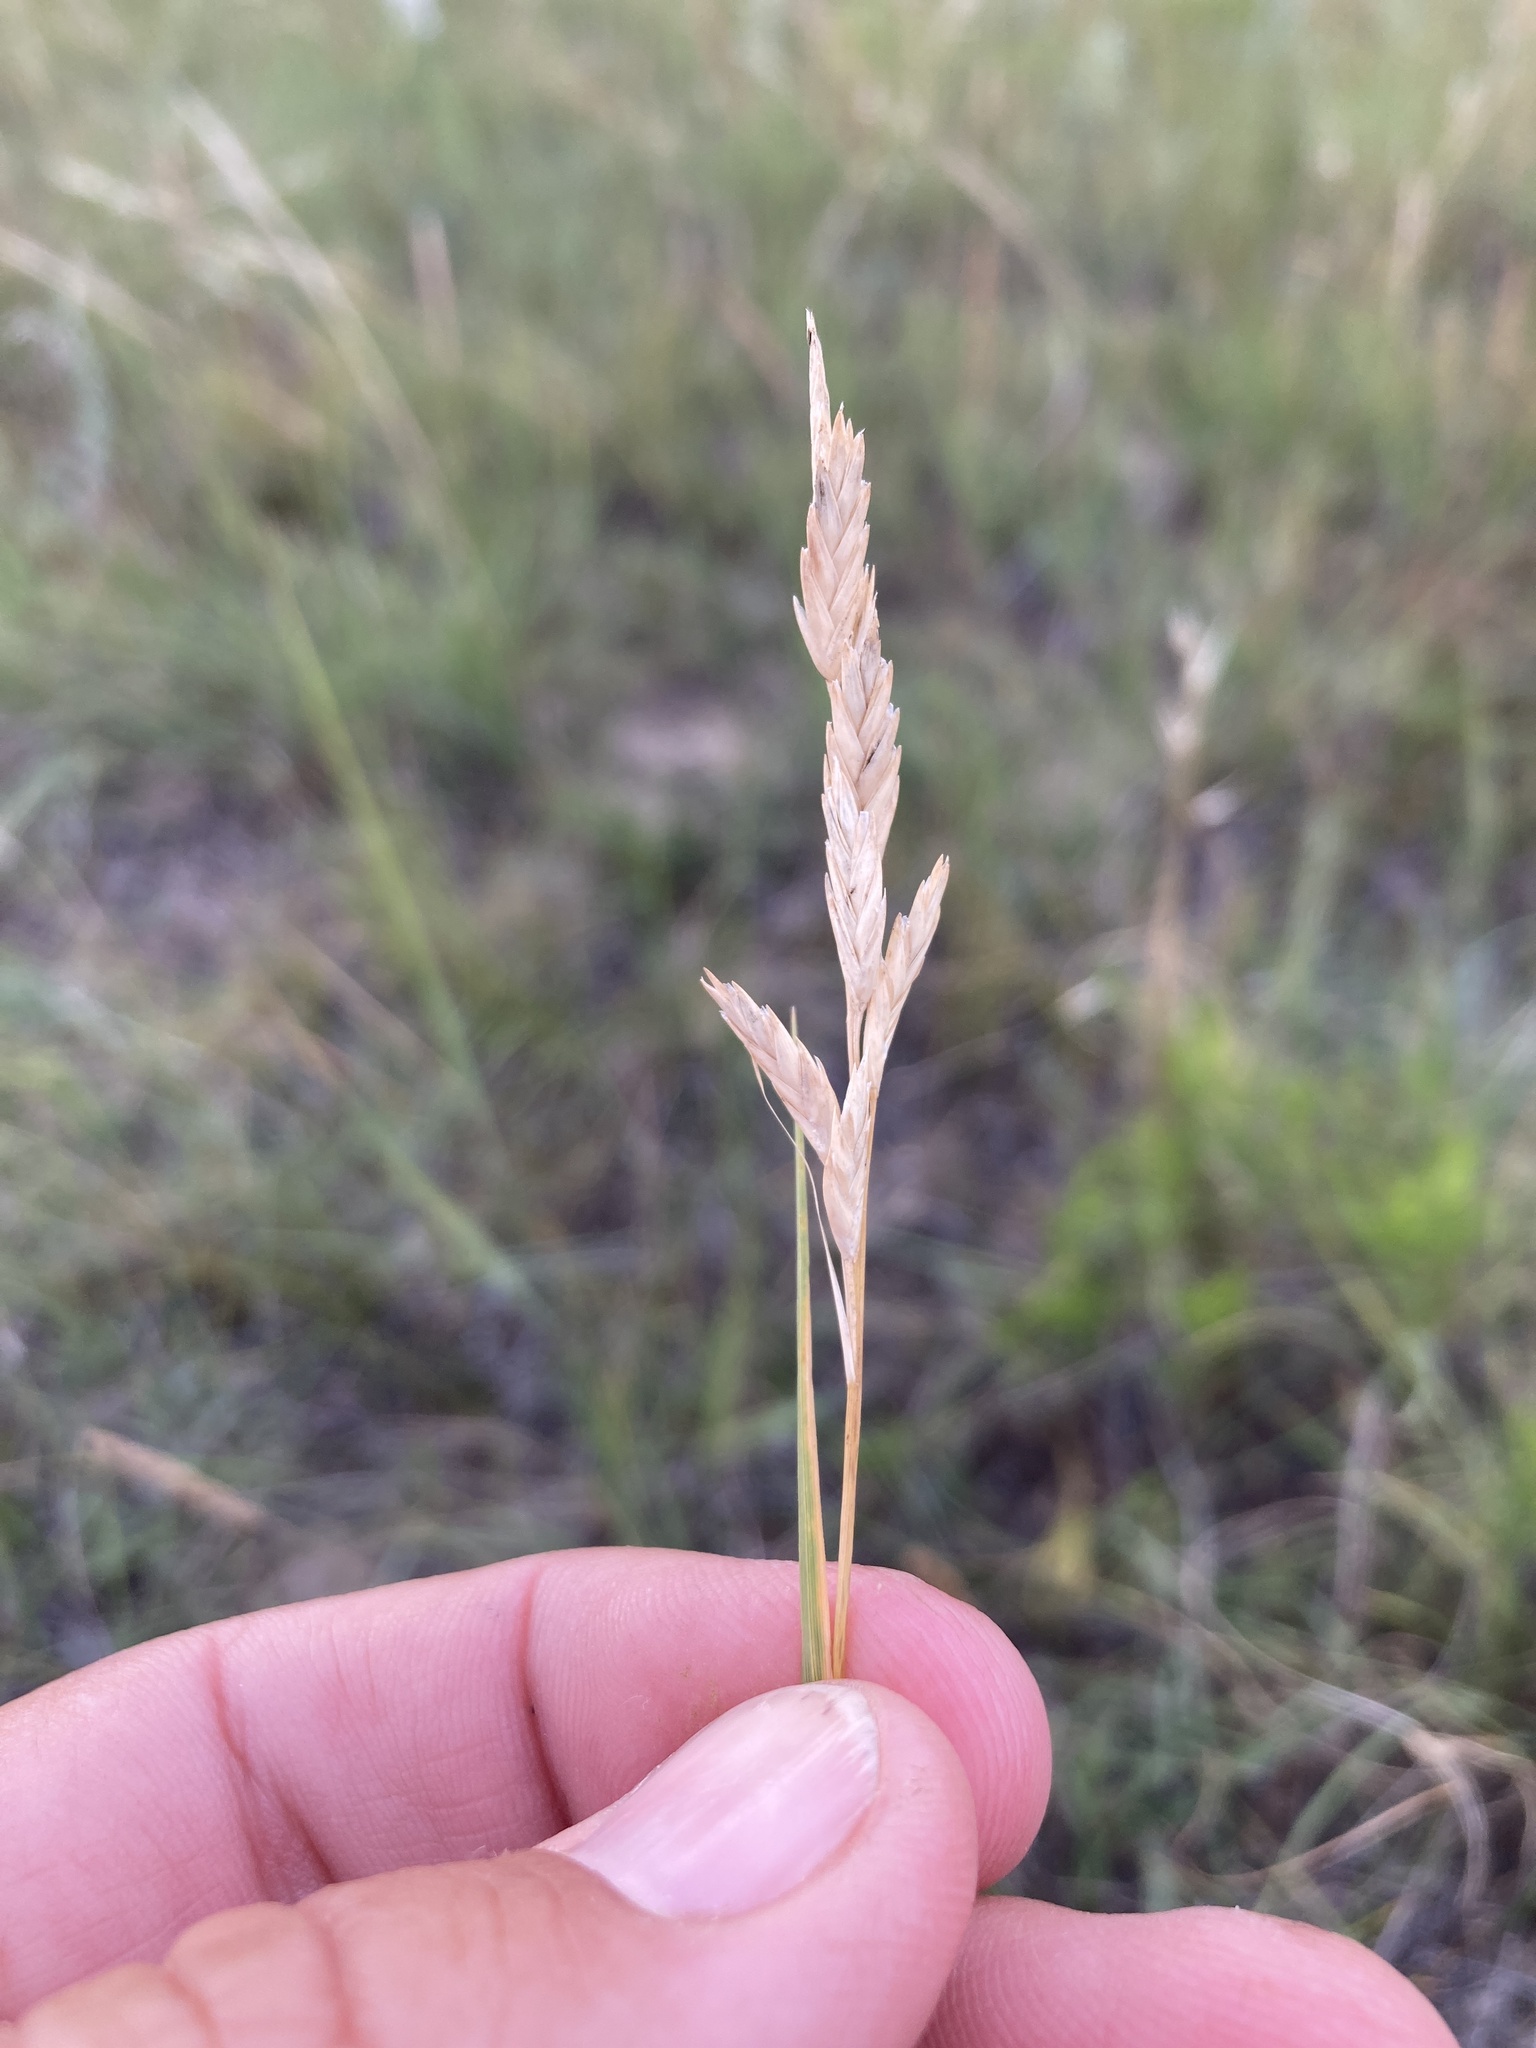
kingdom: Plantae
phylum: Tracheophyta
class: Liliopsida
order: Poales
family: Poaceae
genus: Distichlis
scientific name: Distichlis spicata
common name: Saltgrass
